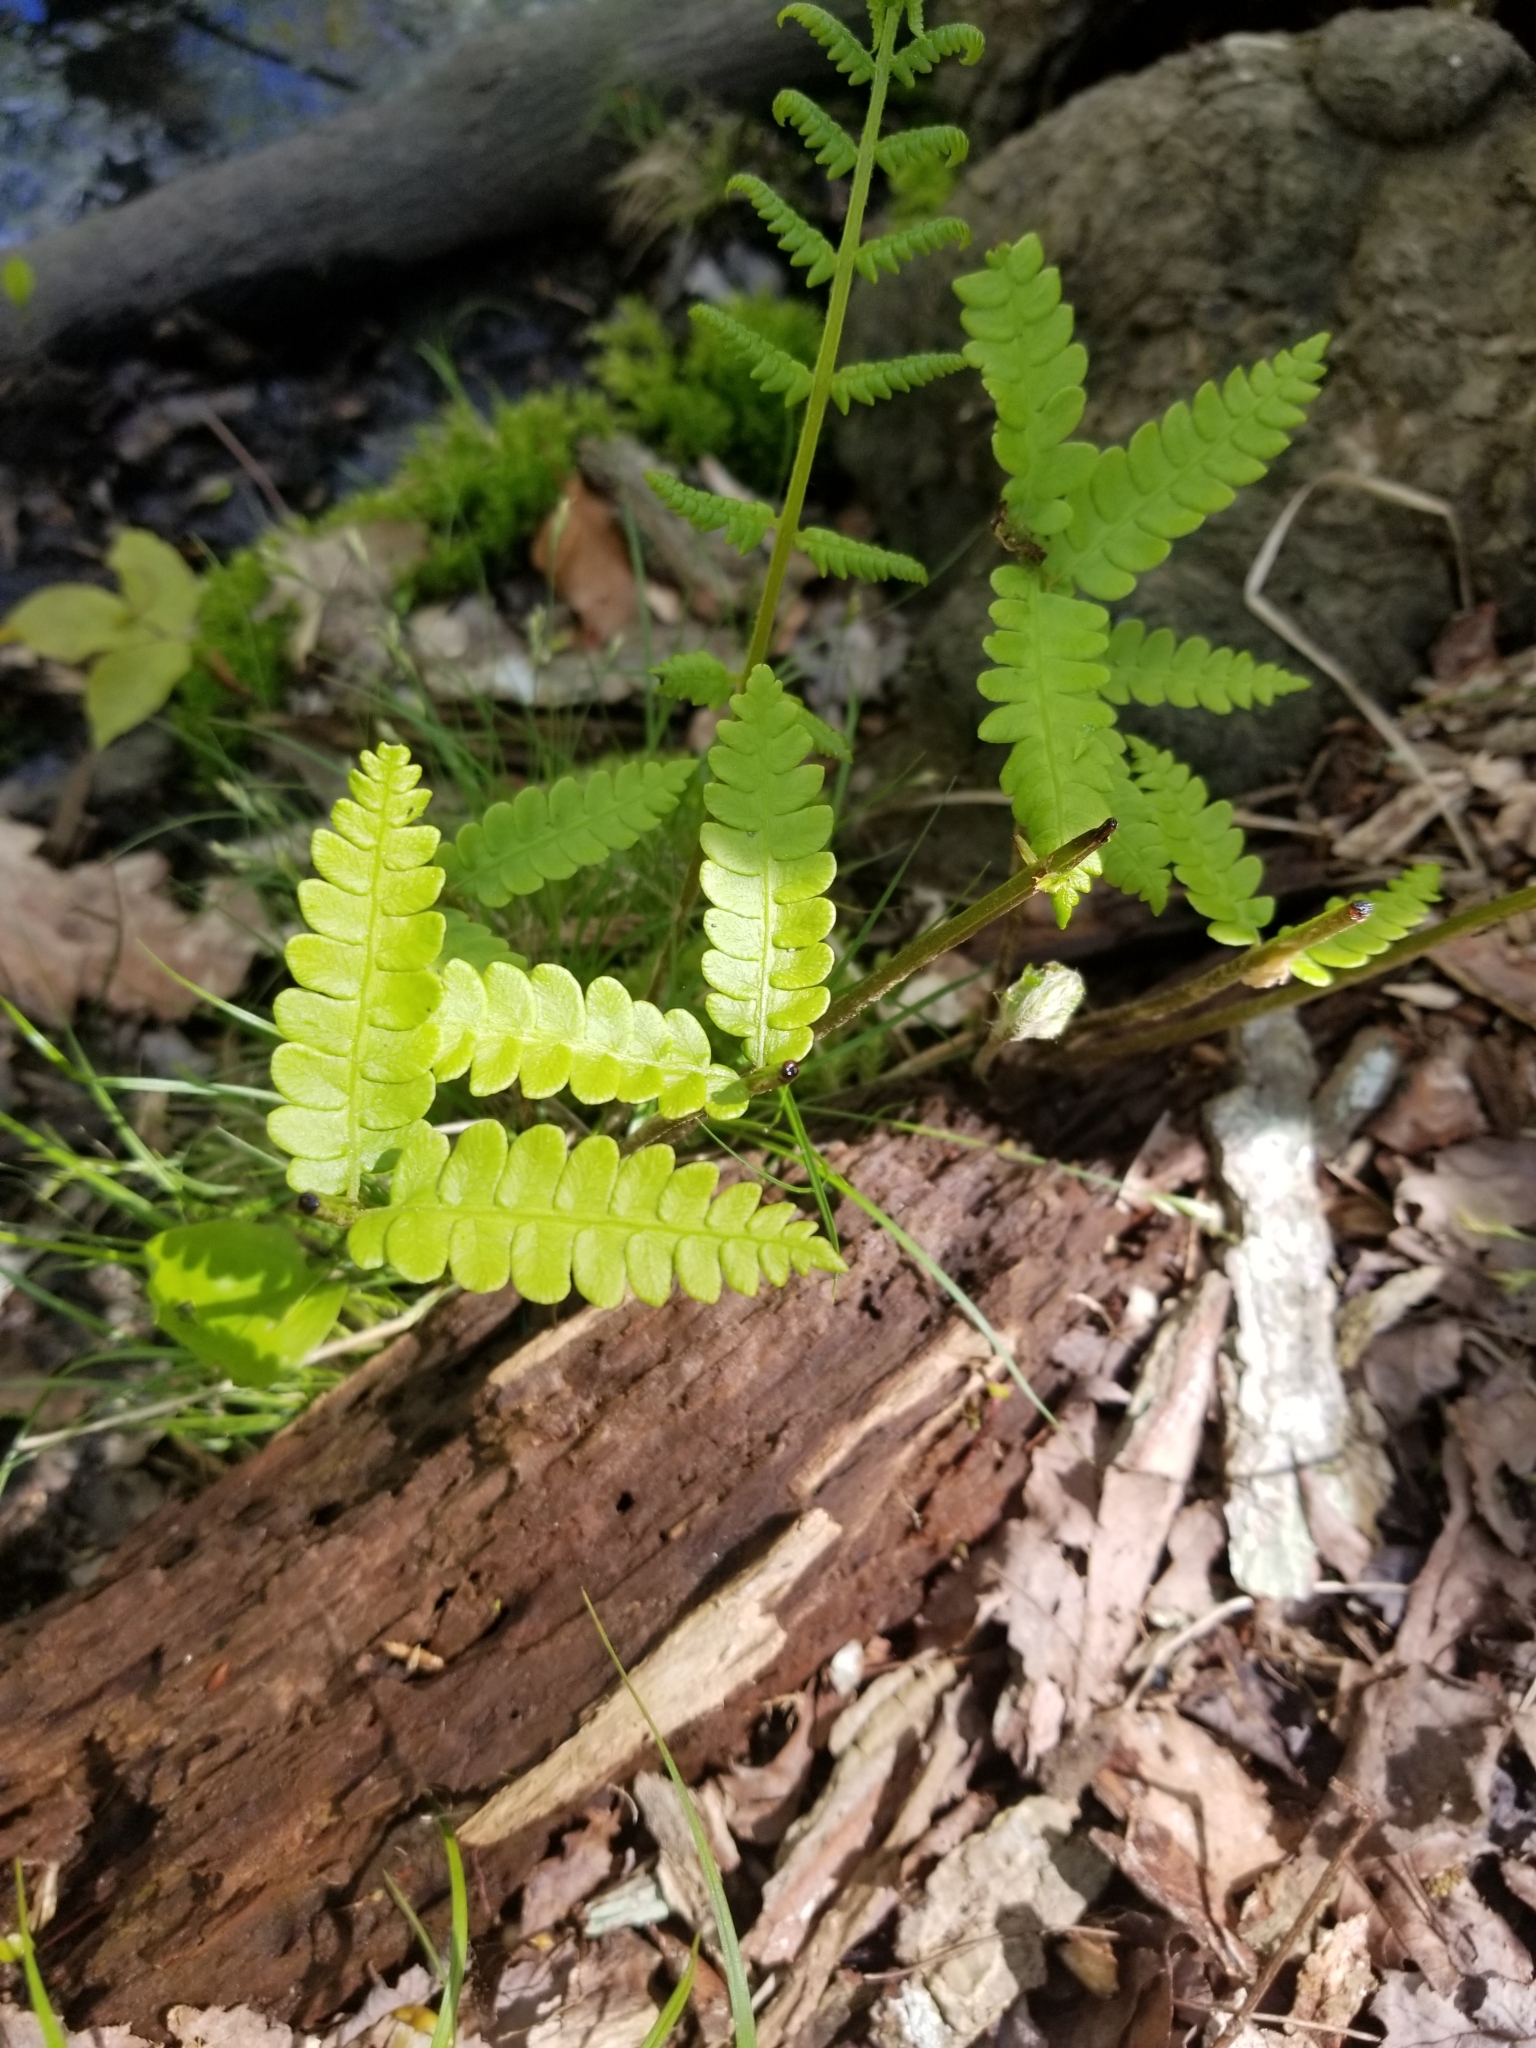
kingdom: Plantae
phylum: Tracheophyta
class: Polypodiopsida
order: Osmundales
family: Osmundaceae
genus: Osmundastrum
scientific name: Osmundastrum cinnamomeum
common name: Cinnamon fern
